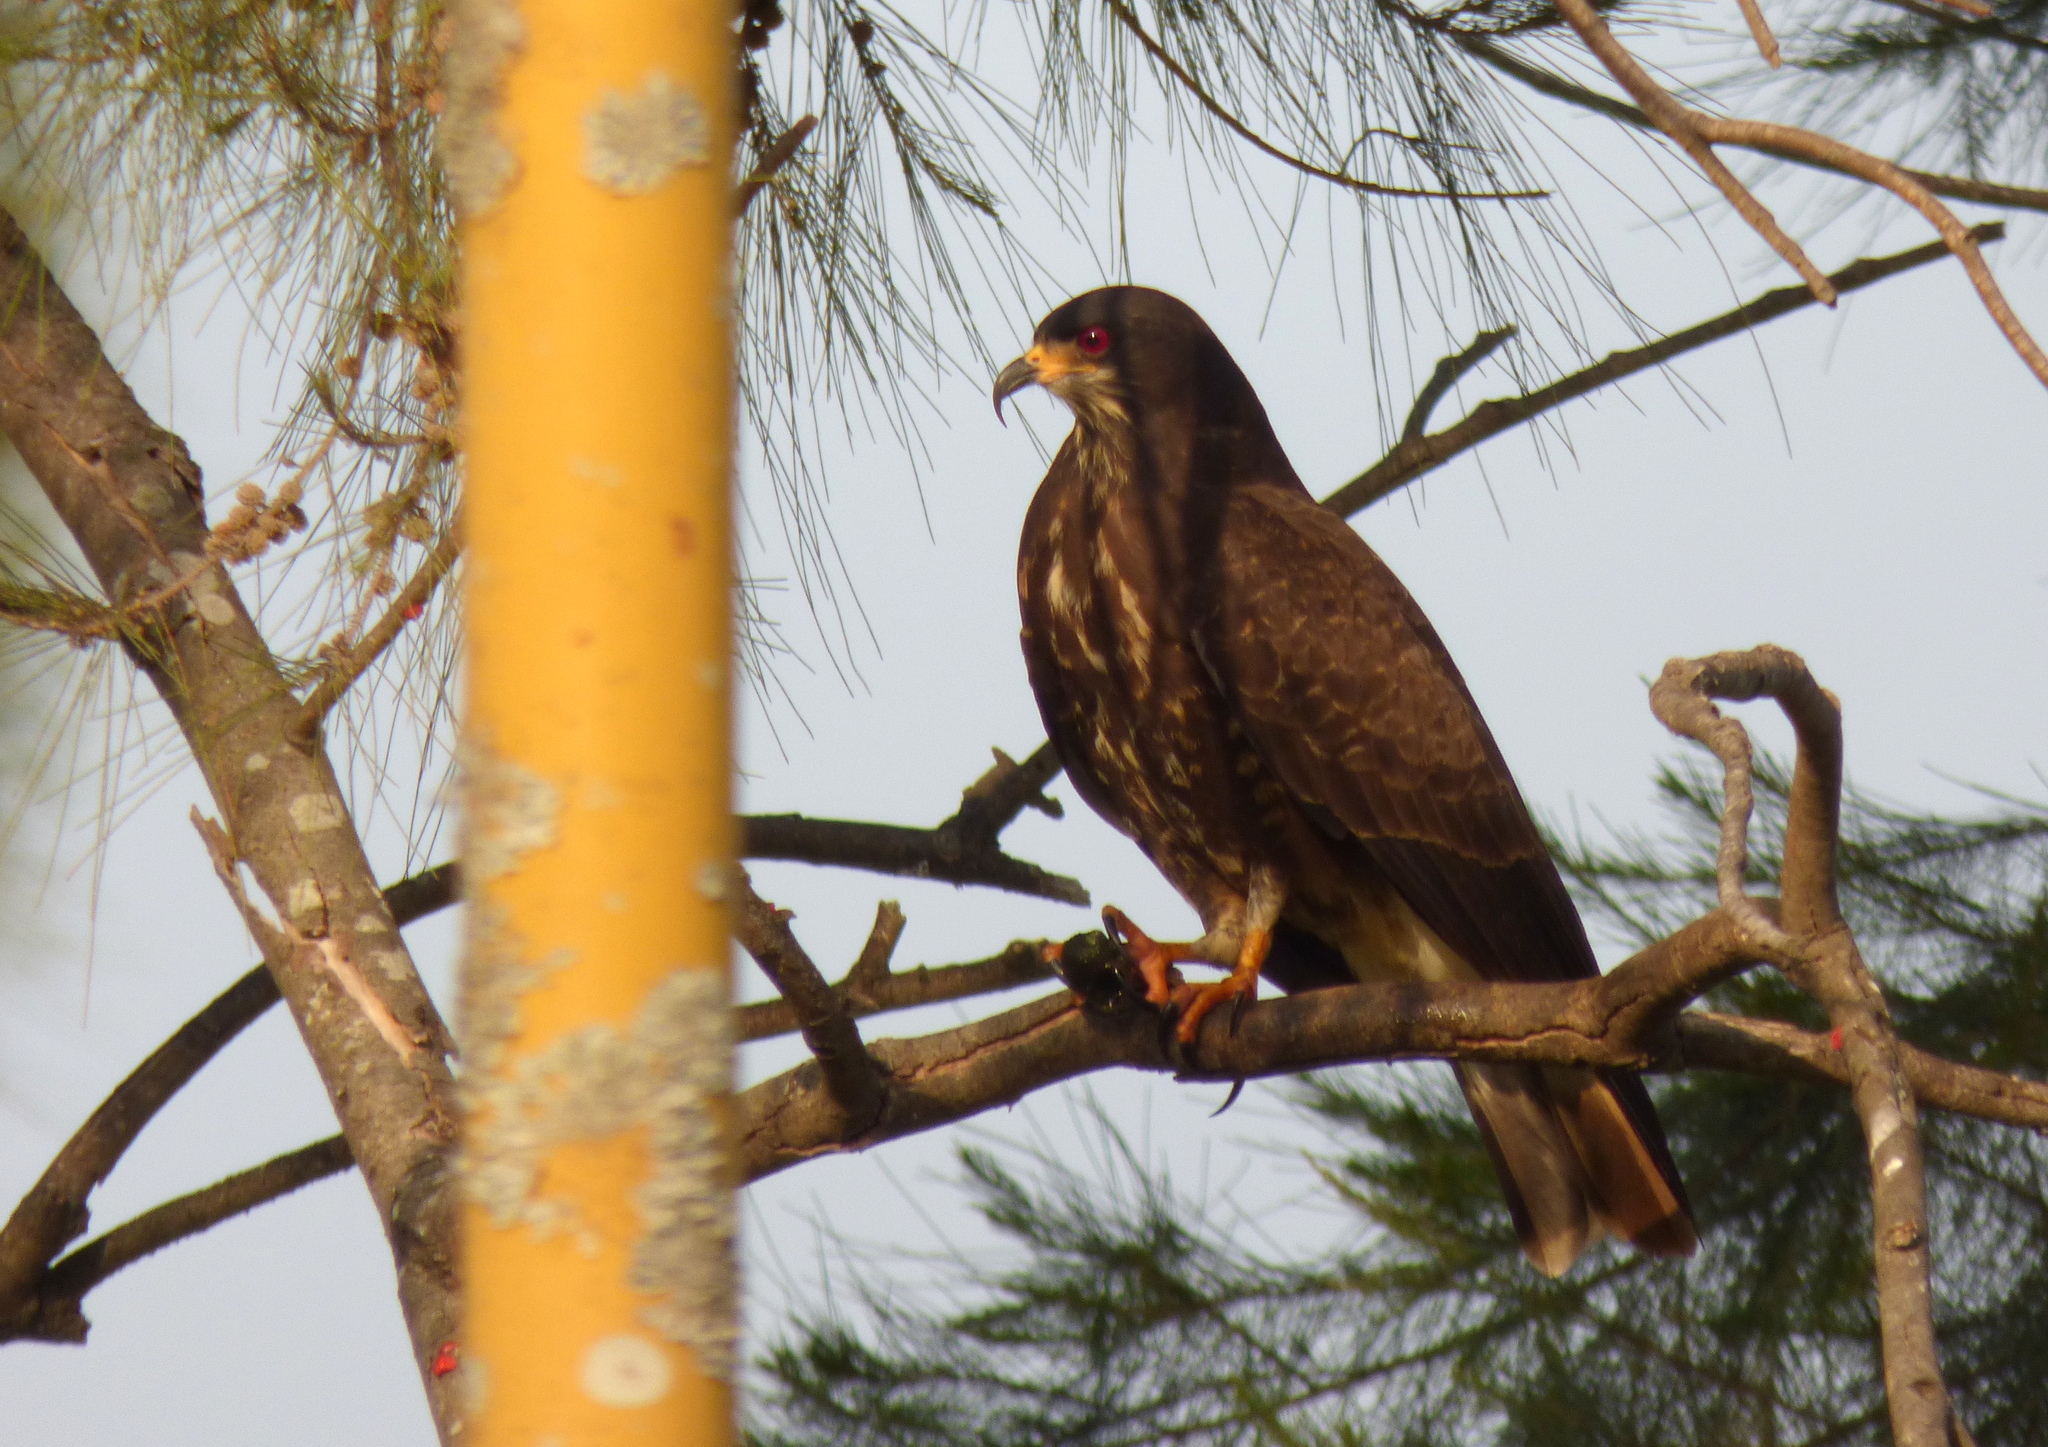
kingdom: Animalia
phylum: Chordata
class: Aves
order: Accipitriformes
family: Accipitridae
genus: Rostrhamus
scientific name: Rostrhamus sociabilis
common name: Snail kite
